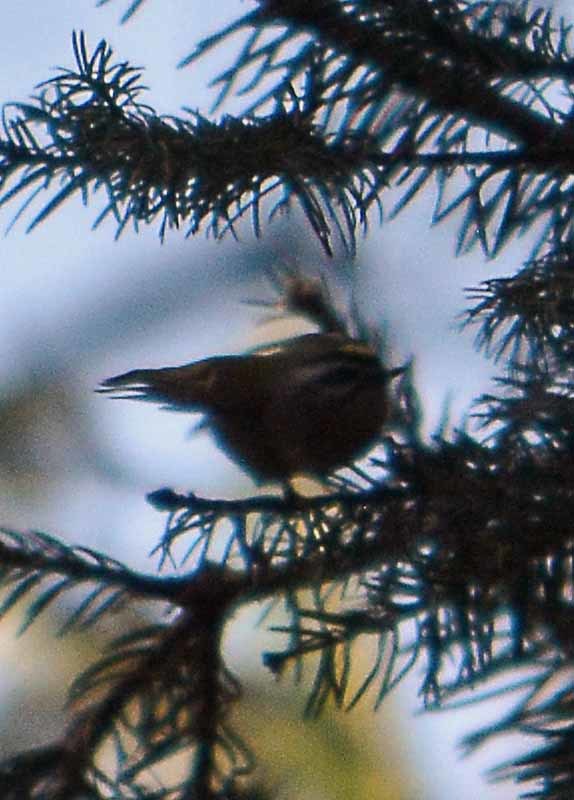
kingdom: Animalia
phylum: Chordata
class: Aves
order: Passeriformes
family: Regulidae
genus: Regulus
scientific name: Regulus satrapa
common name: Golden-crowned kinglet
